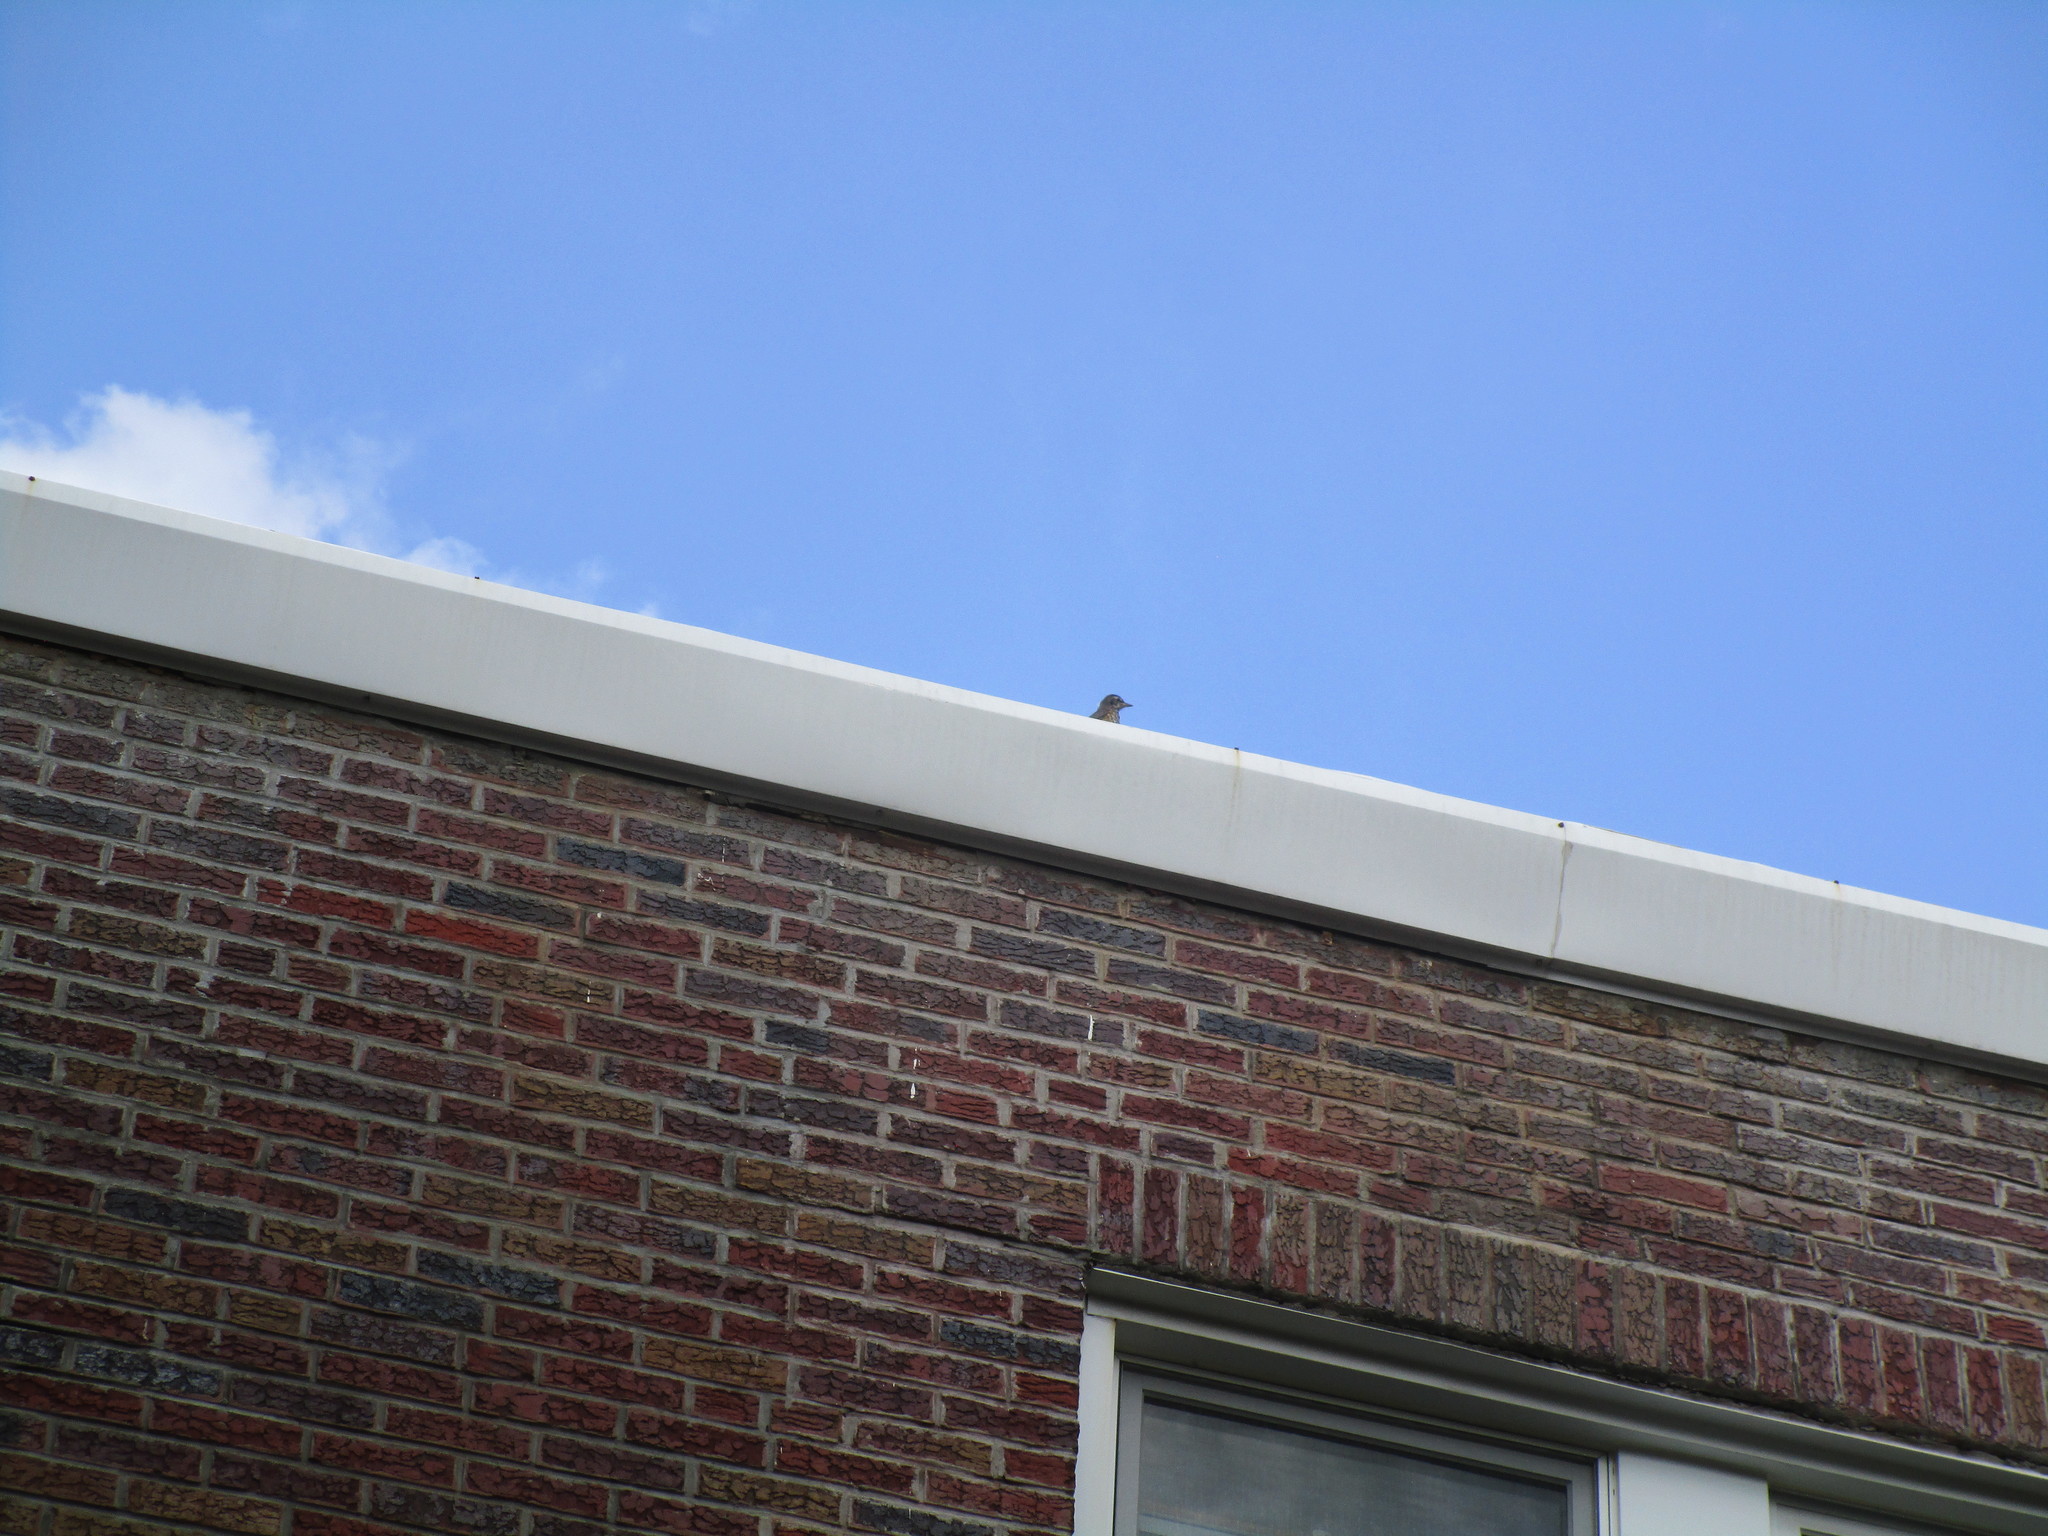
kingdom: Animalia
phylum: Chordata
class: Aves
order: Passeriformes
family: Turdidae
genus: Turdus
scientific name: Turdus migratorius
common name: American robin
